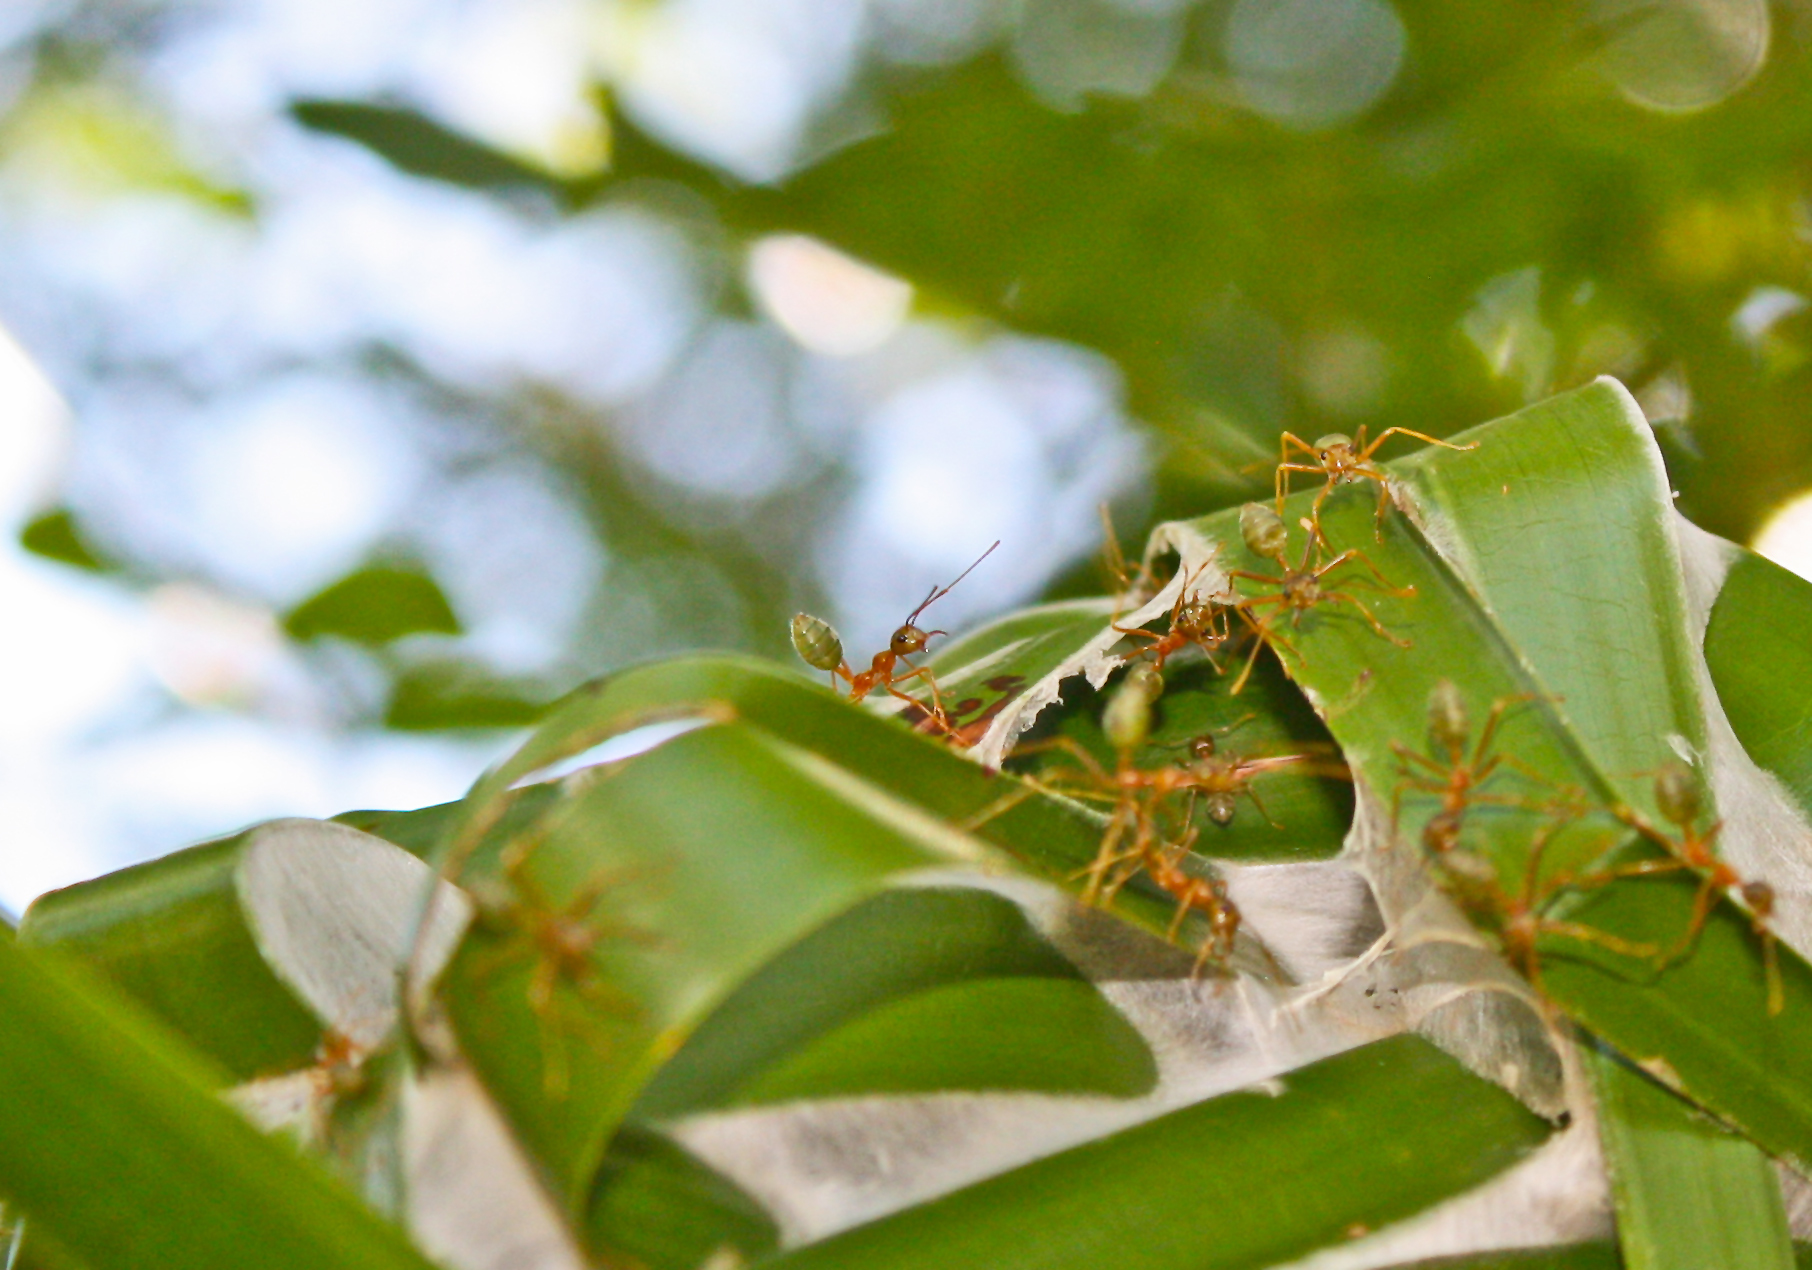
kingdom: Animalia
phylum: Arthropoda
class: Insecta
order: Hymenoptera
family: Formicidae
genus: Oecophylla
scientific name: Oecophylla smaragdina
